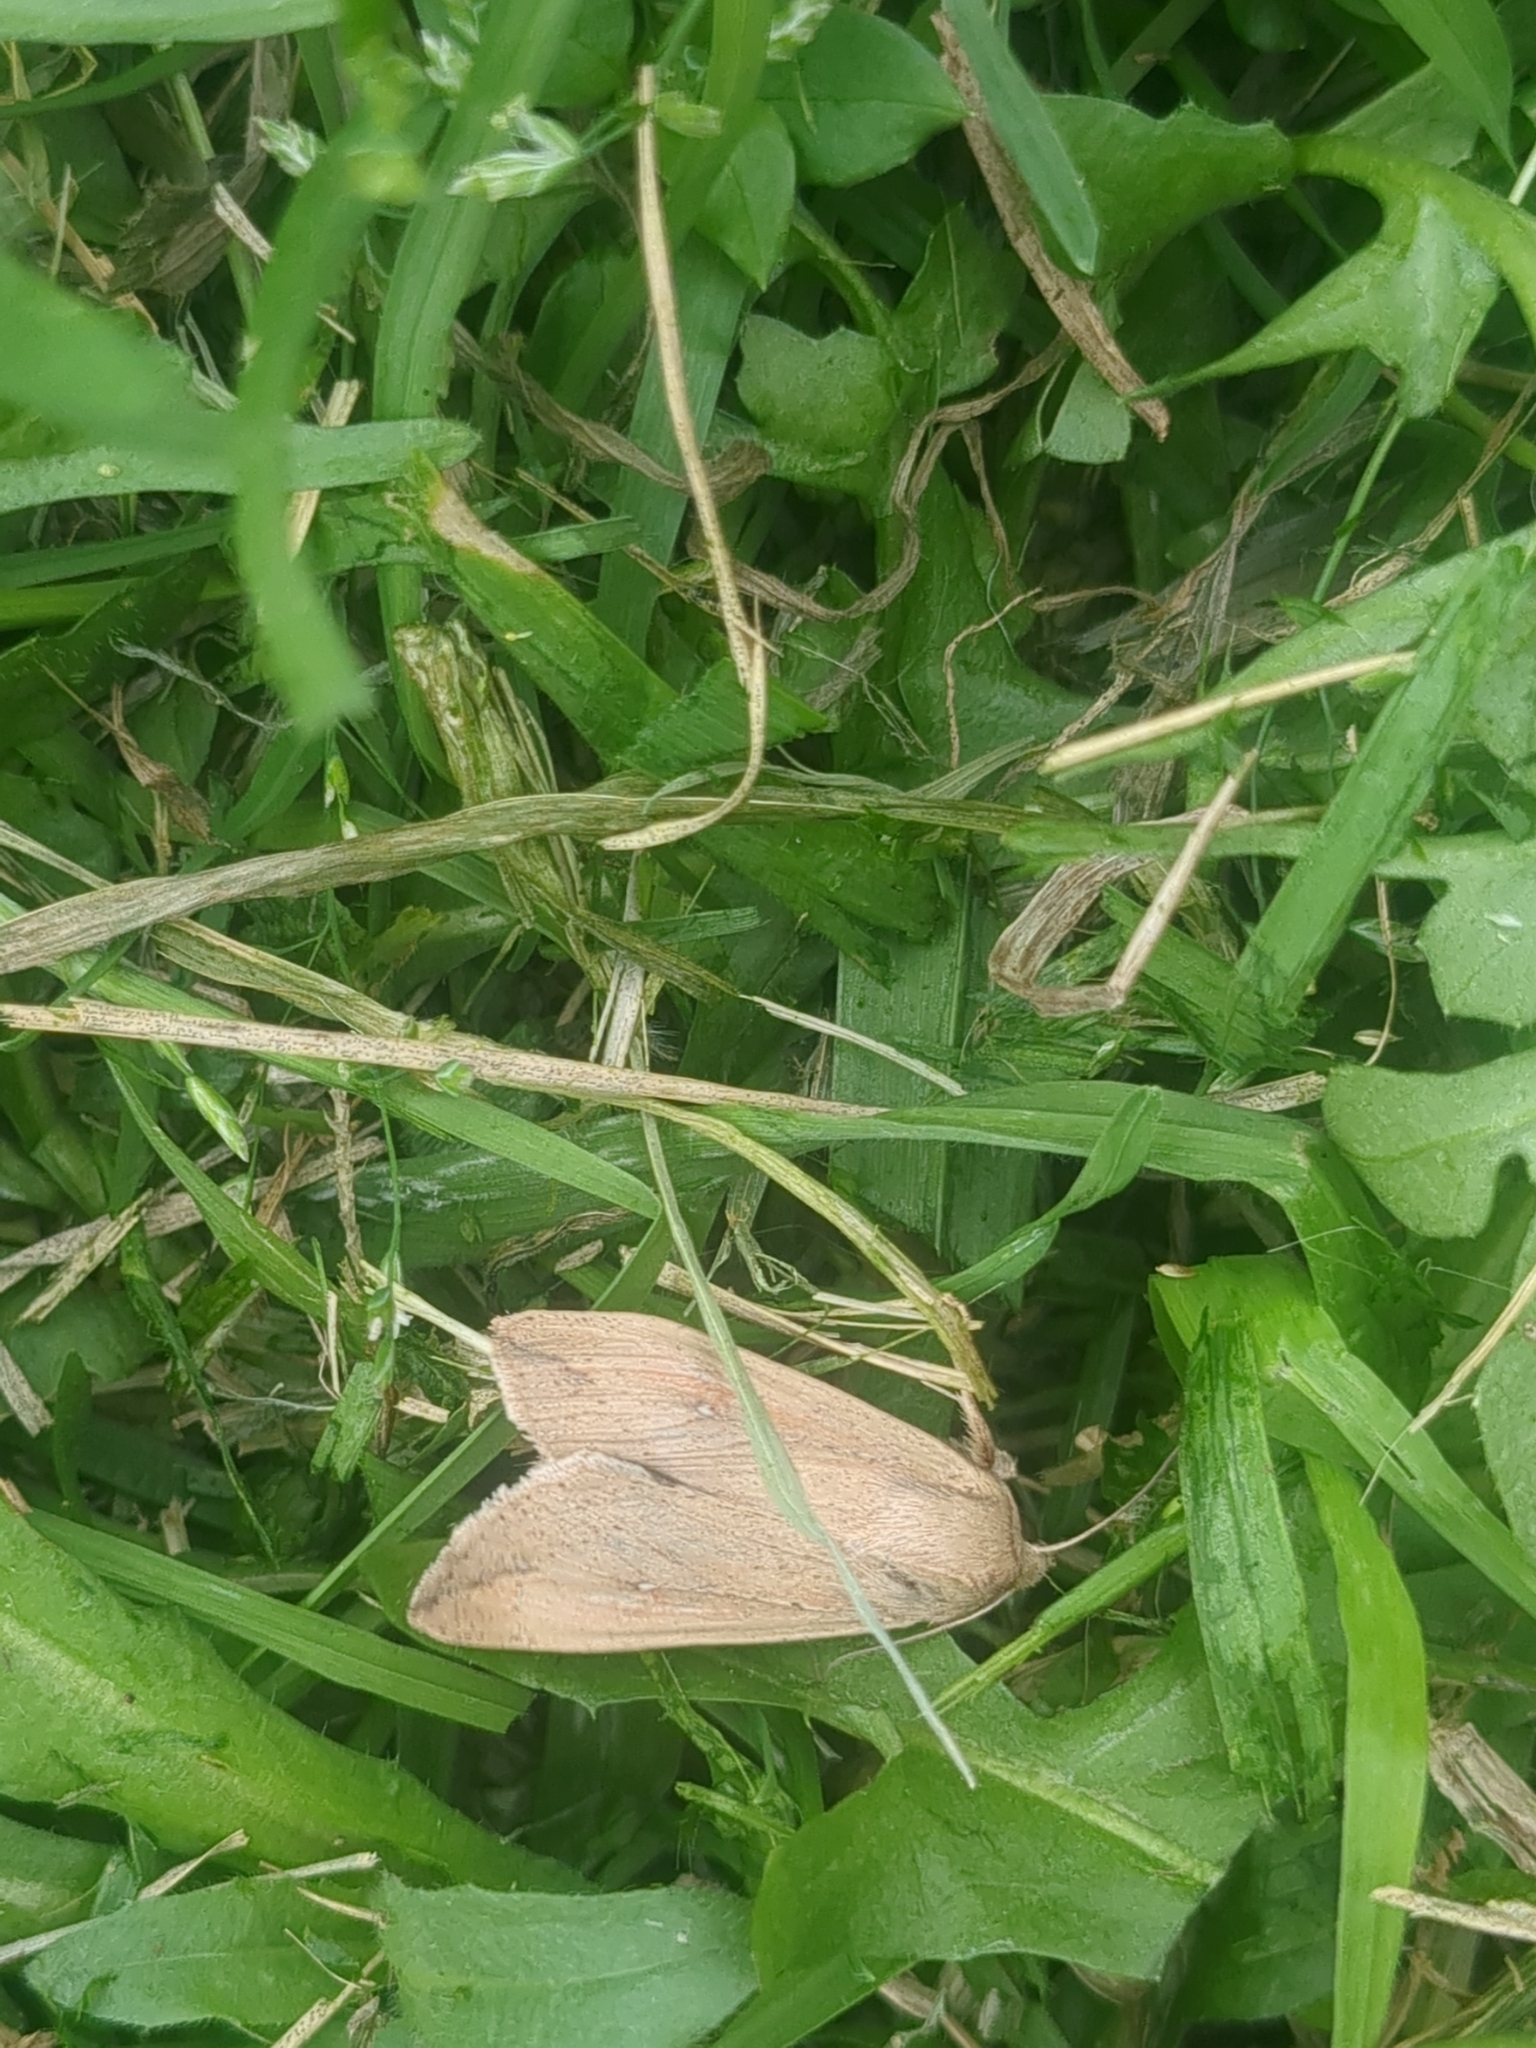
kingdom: Animalia
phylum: Arthropoda
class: Insecta
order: Lepidoptera
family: Noctuidae
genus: Mythimna
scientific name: Mythimna unipuncta
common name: White-speck
